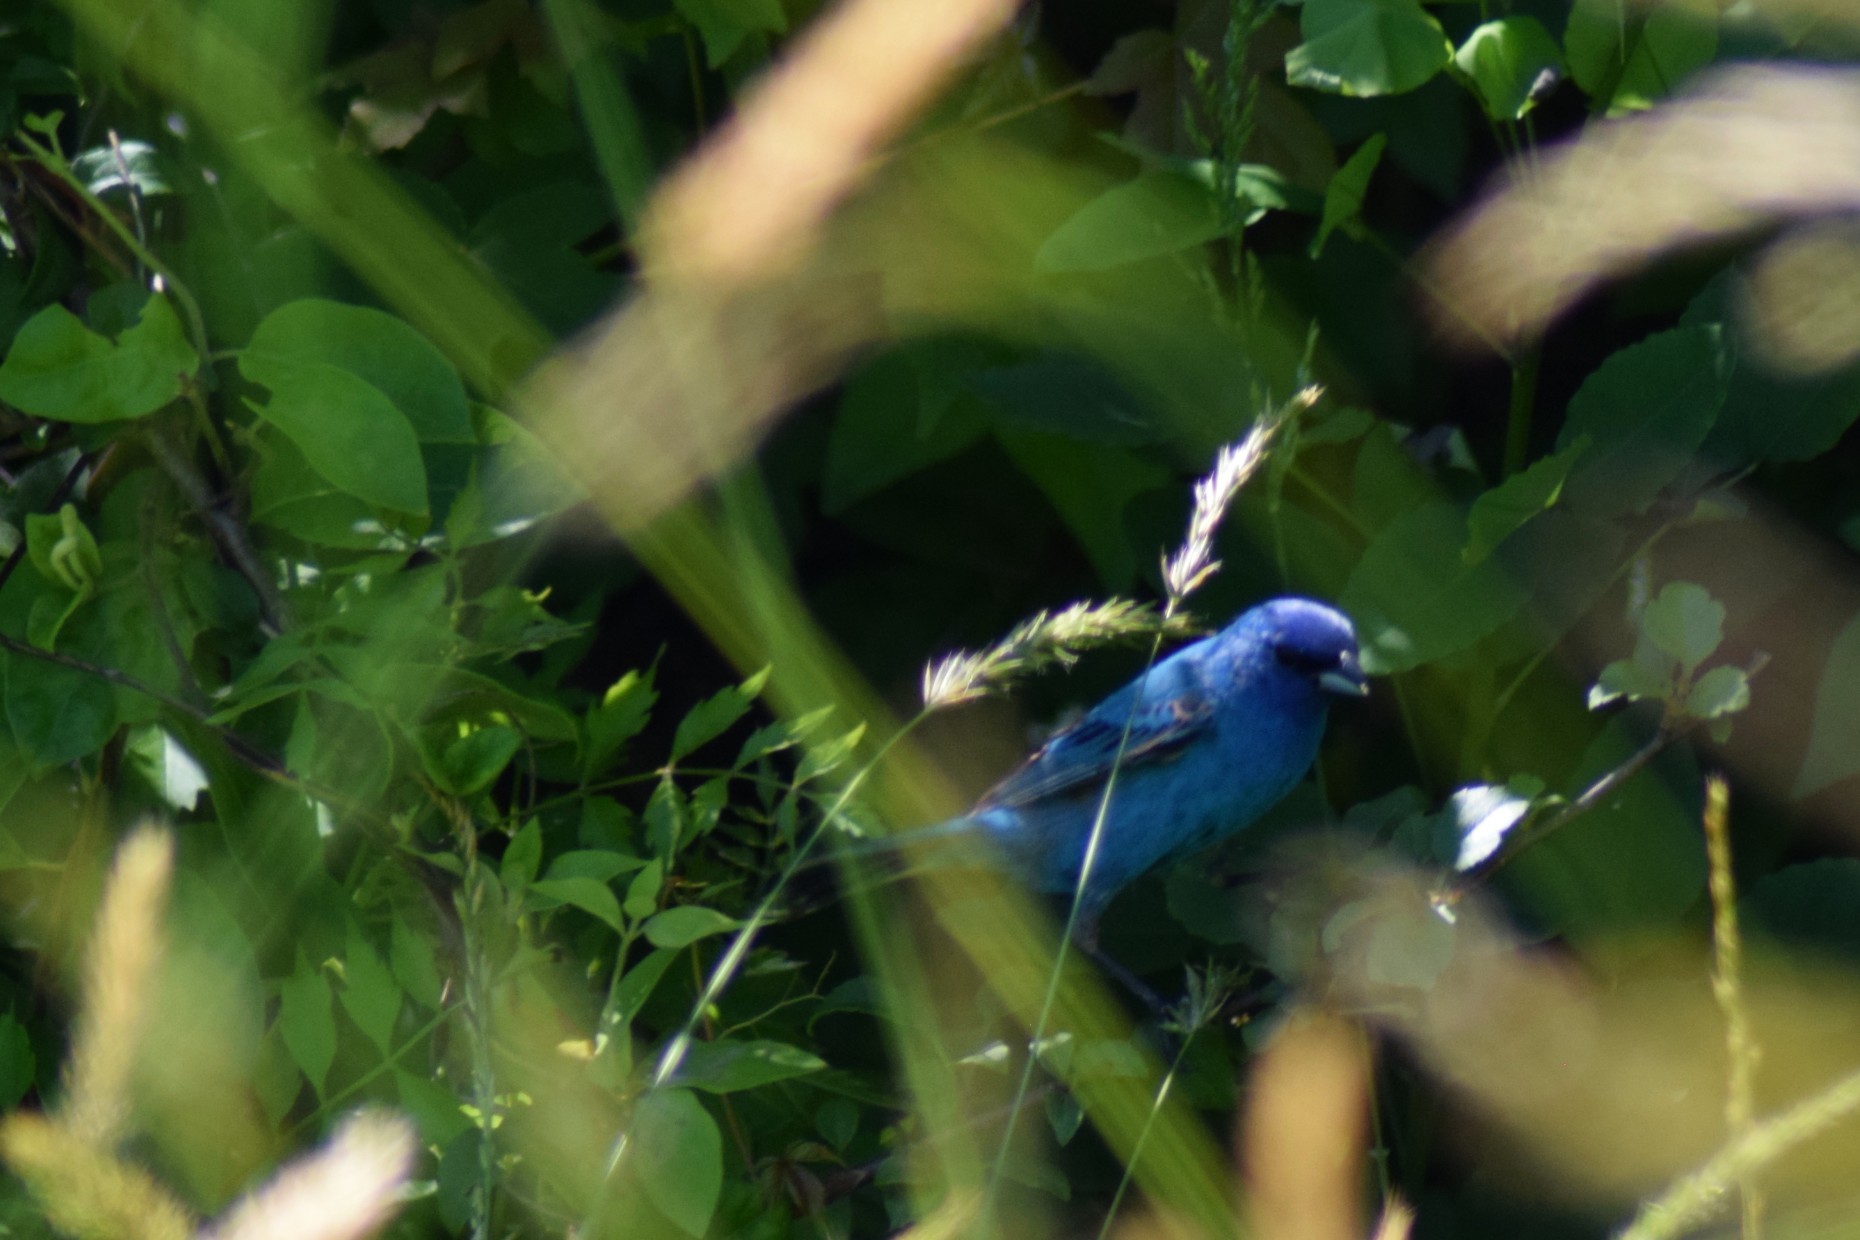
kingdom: Animalia
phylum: Chordata
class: Aves
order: Passeriformes
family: Cardinalidae
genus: Passerina
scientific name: Passerina cyanea
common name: Indigo bunting
